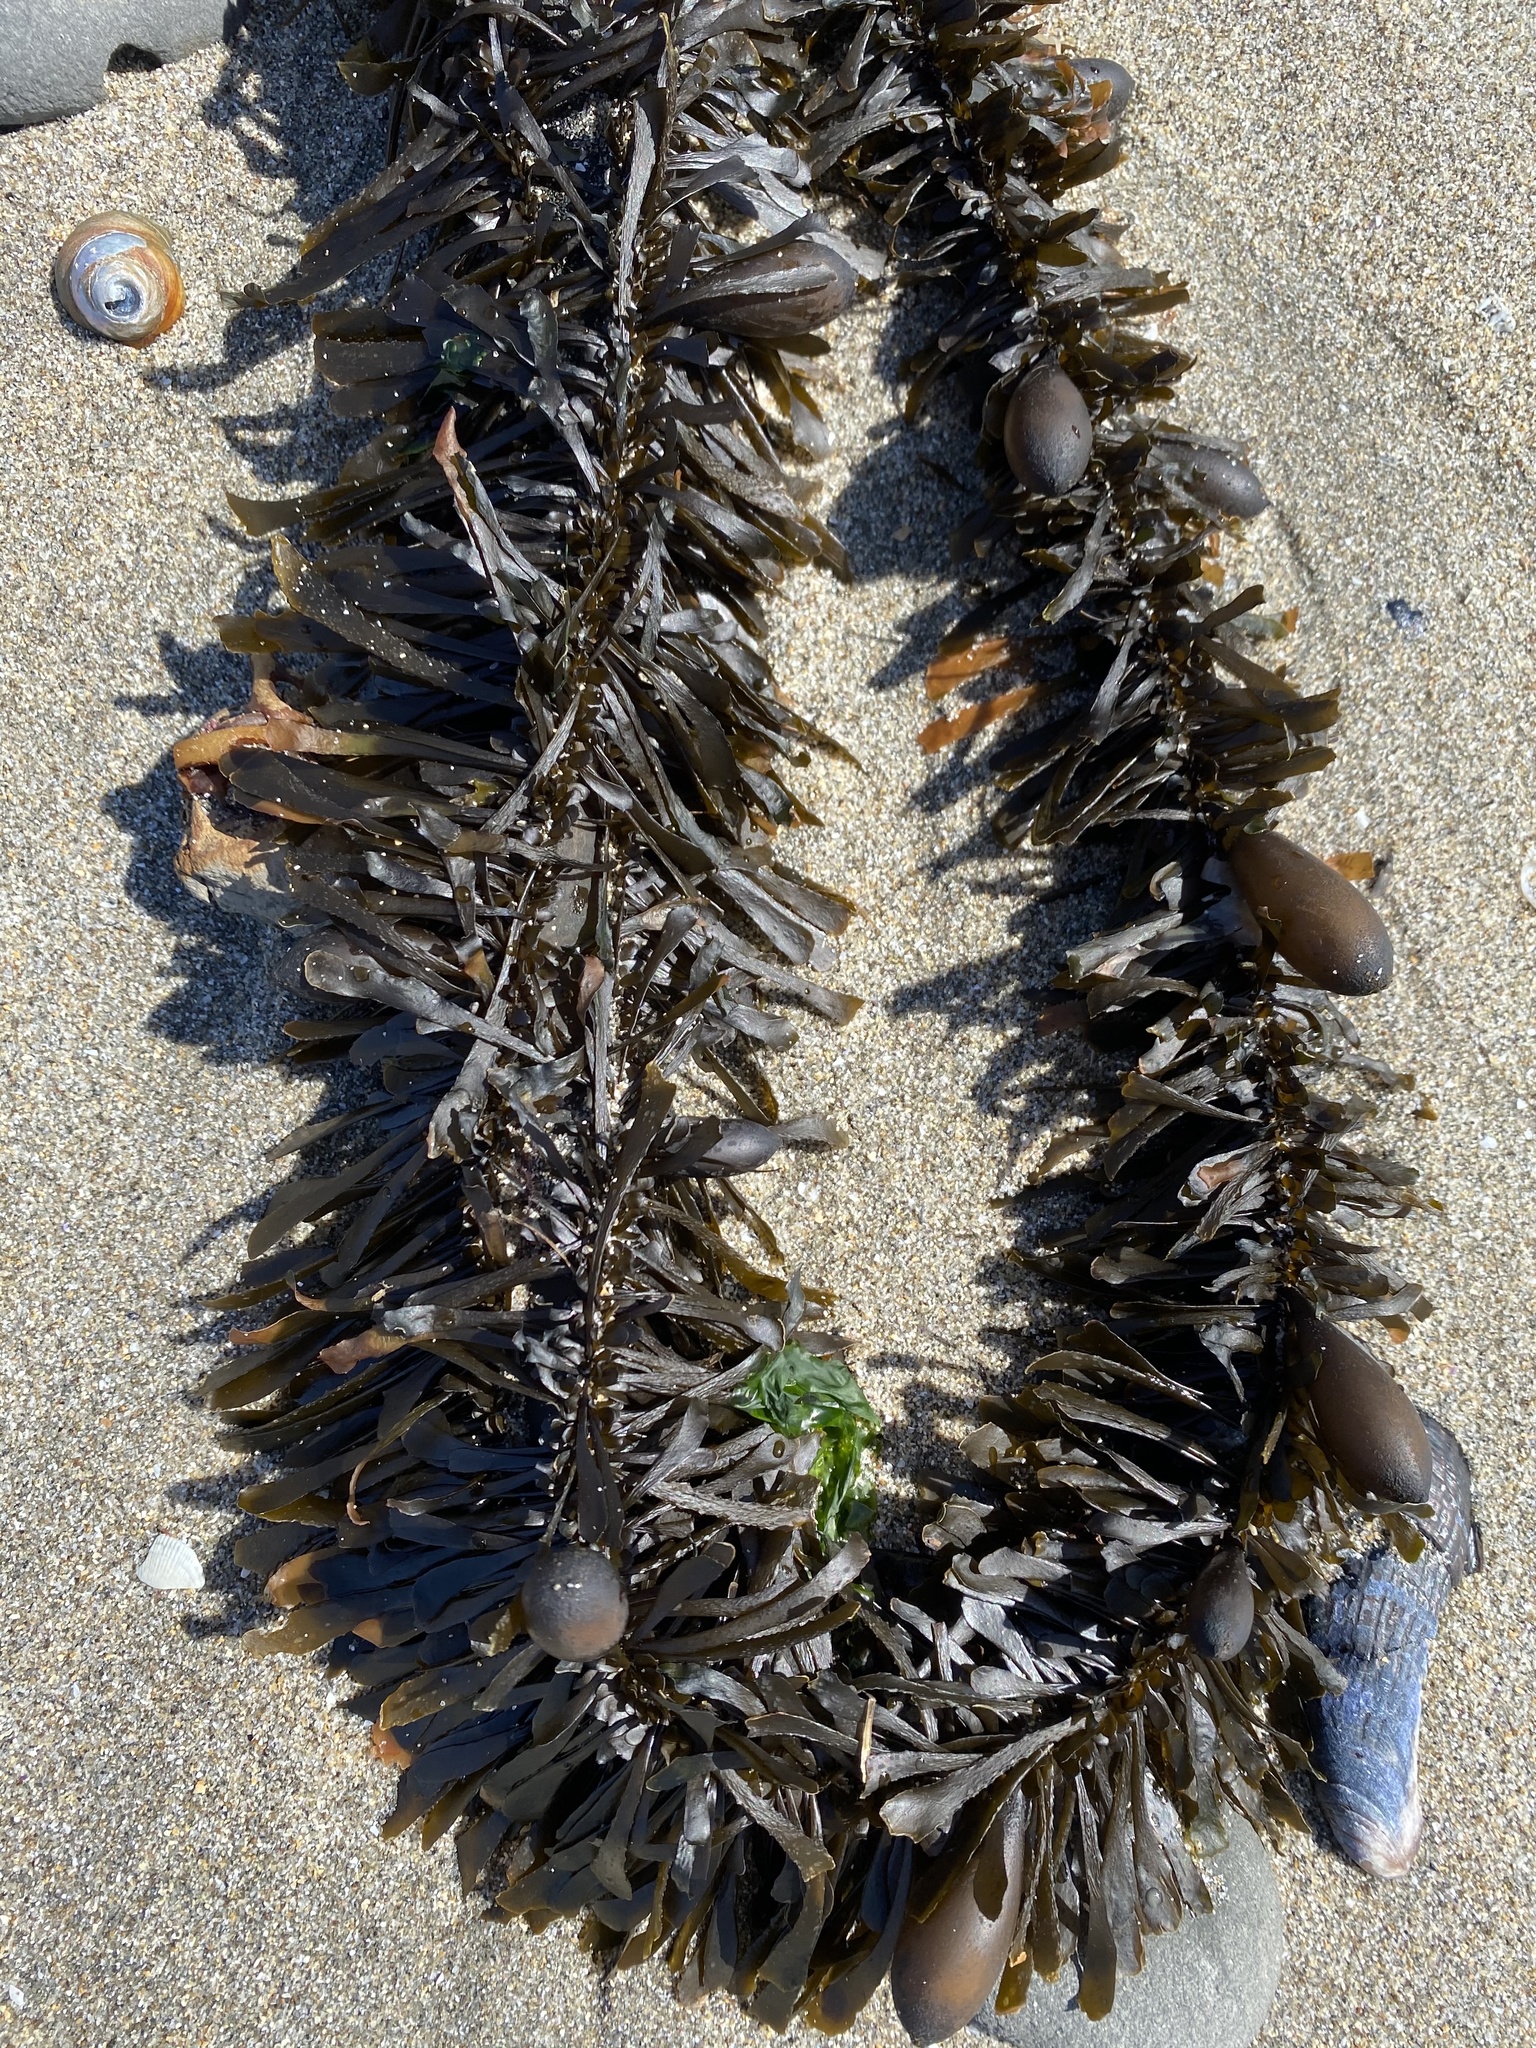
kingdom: Chromista
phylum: Ochrophyta
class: Phaeophyceae
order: Laminariales
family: Lessoniaceae
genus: Egregia
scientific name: Egregia menziesii
